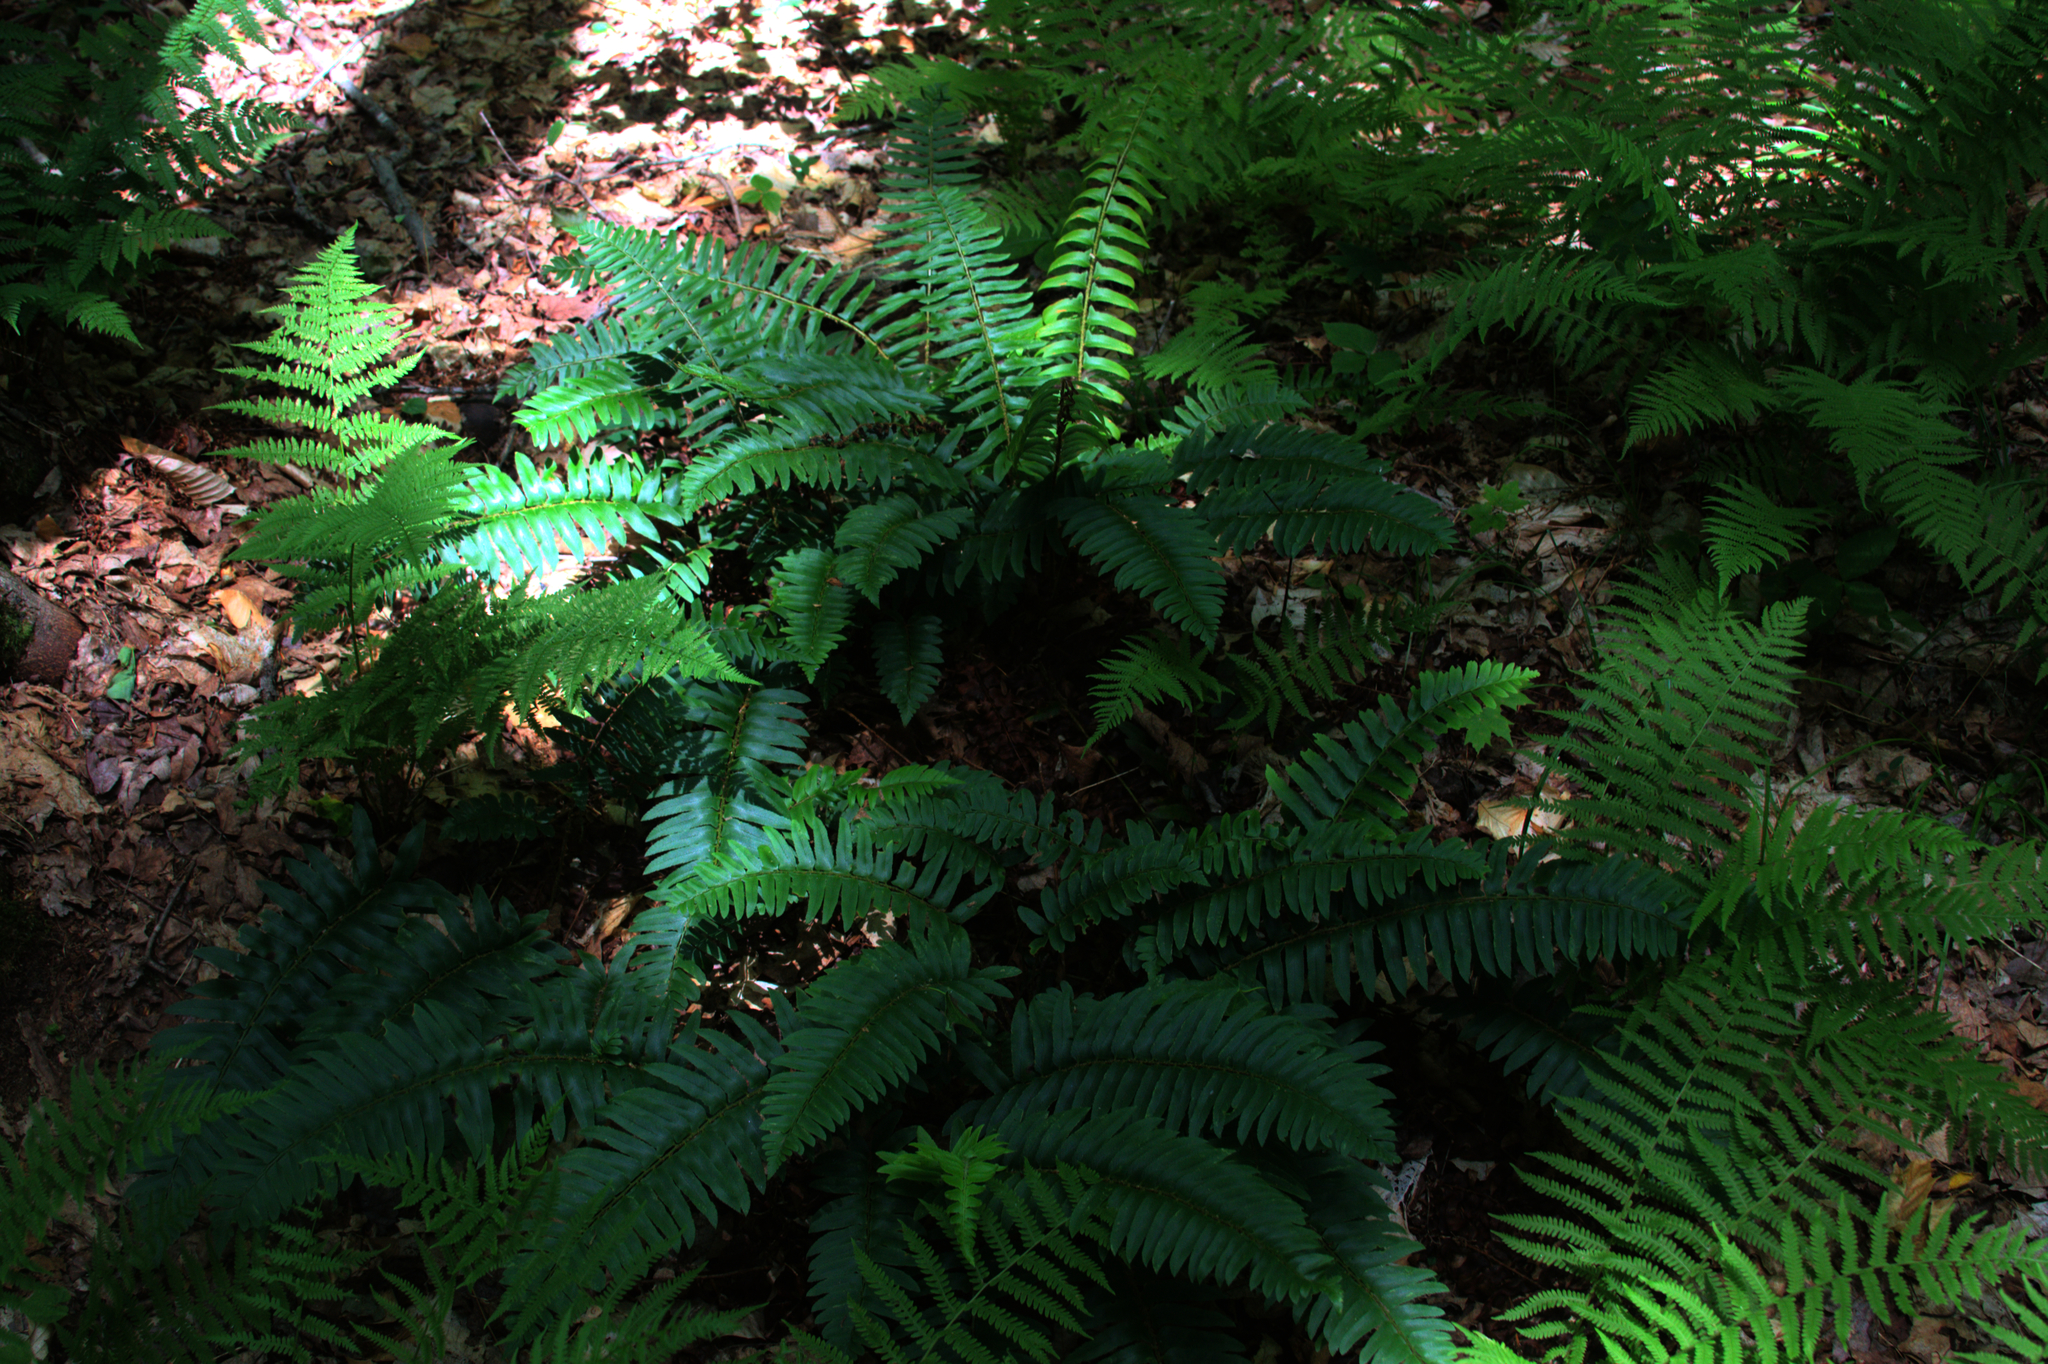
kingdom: Plantae
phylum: Tracheophyta
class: Polypodiopsida
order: Polypodiales
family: Dryopteridaceae
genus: Polystichum
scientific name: Polystichum acrostichoides
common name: Christmas fern
